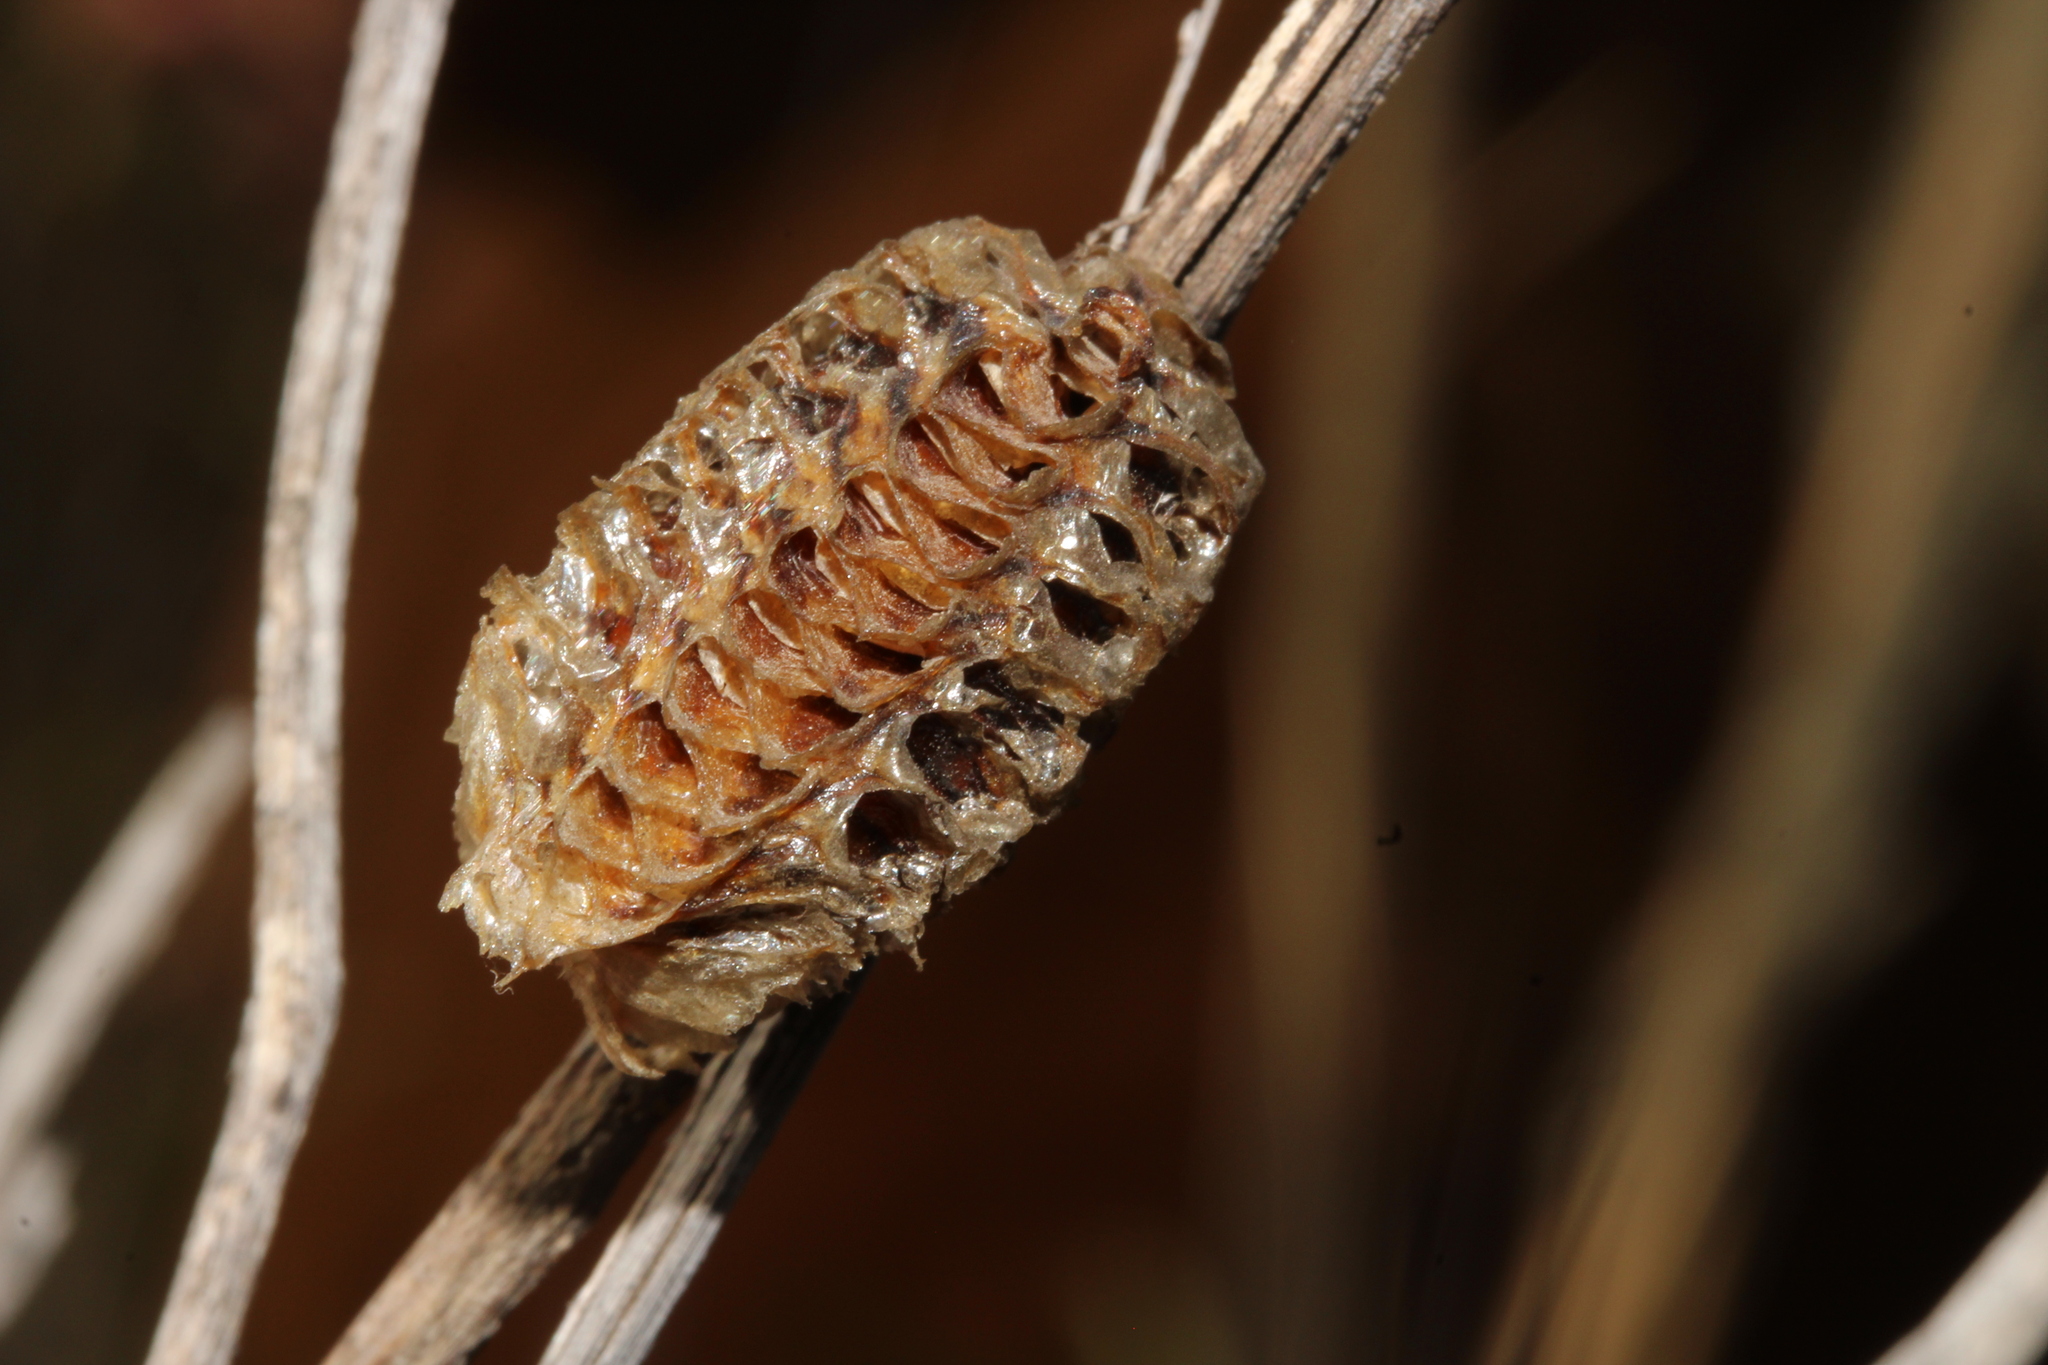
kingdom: Animalia
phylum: Arthropoda
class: Insecta
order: Mantodea
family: Mantidae
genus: Stagmomantis
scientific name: Stagmomantis
